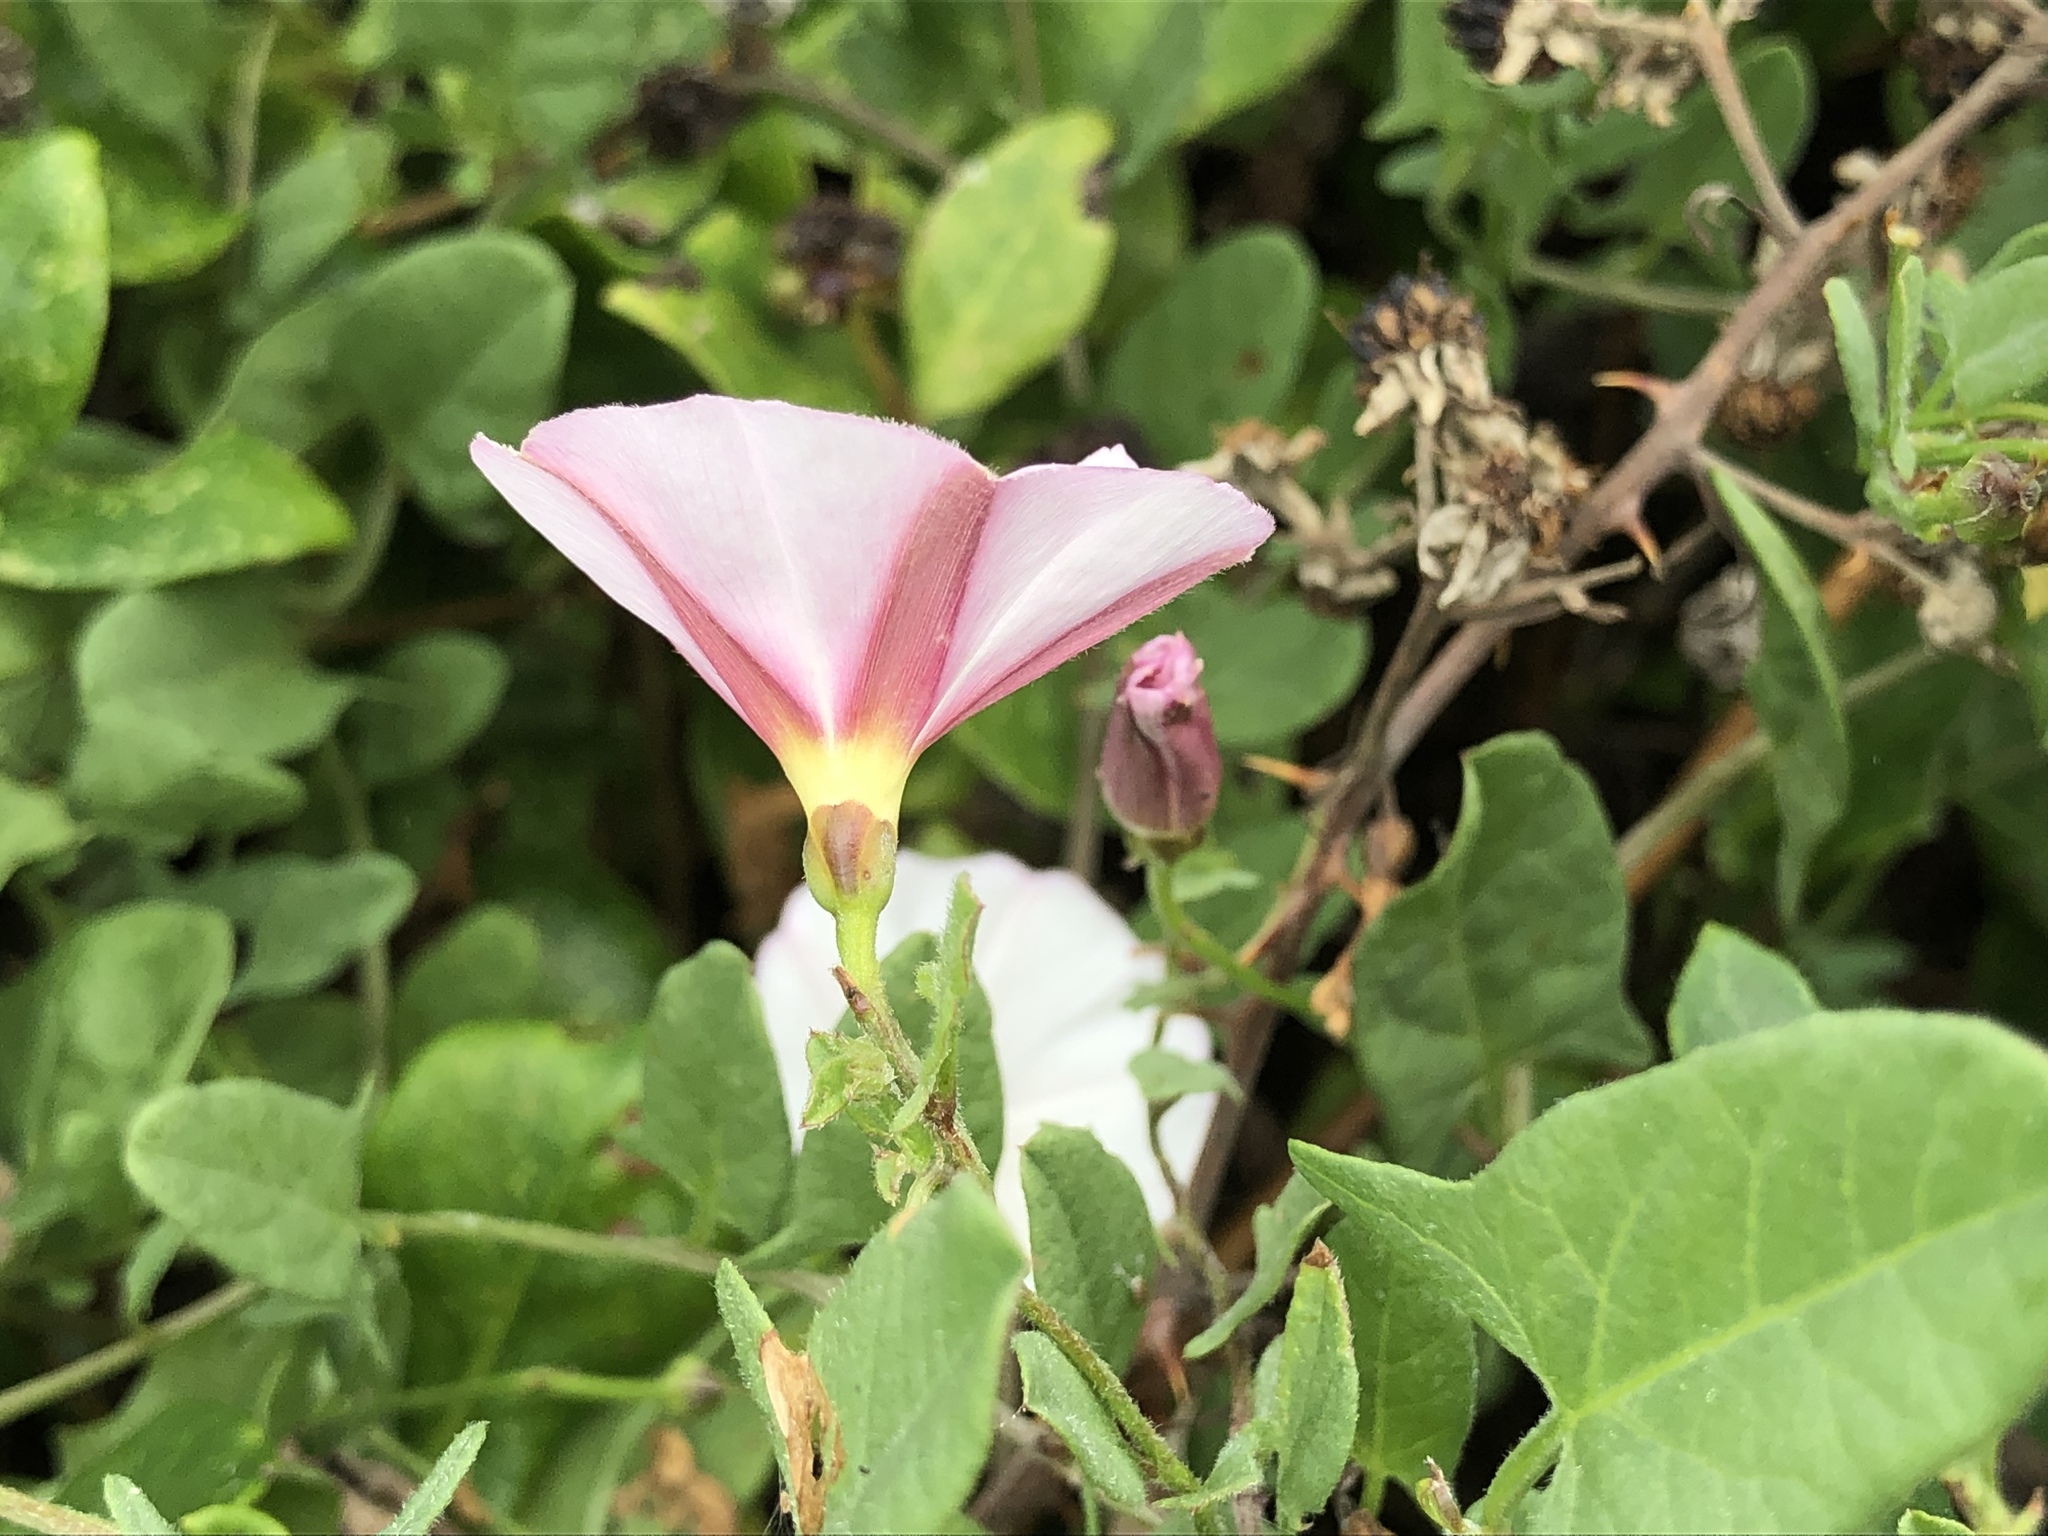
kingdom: Plantae
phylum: Tracheophyta
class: Magnoliopsida
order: Solanales
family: Convolvulaceae
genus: Convolvulus
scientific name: Convolvulus arvensis
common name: Field bindweed
